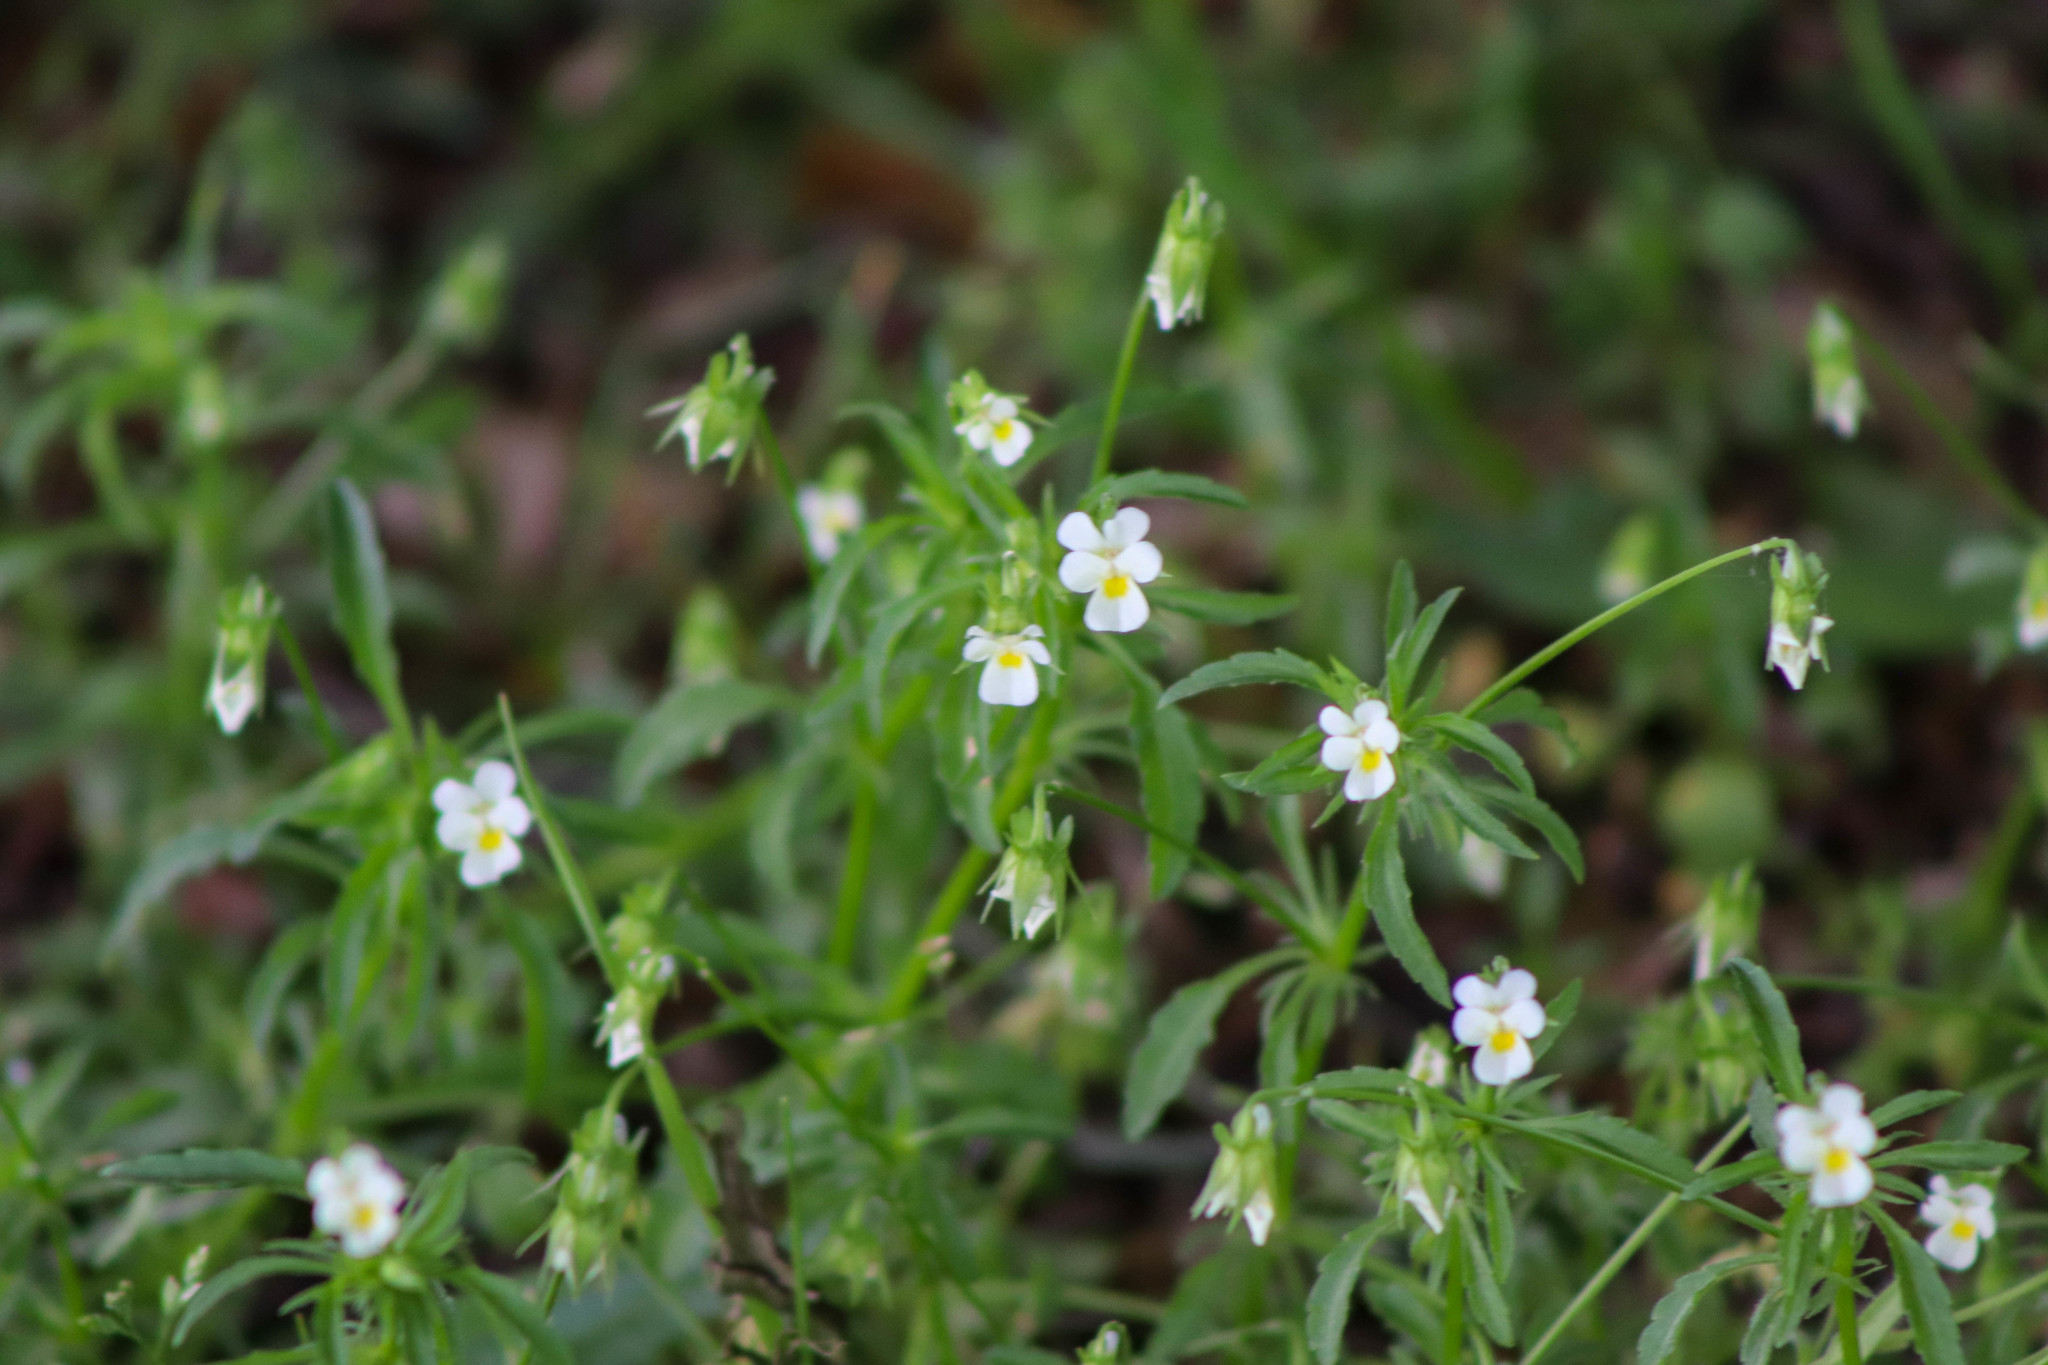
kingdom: Plantae
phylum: Tracheophyta
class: Magnoliopsida
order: Malpighiales
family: Violaceae
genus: Viola
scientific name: Viola arvensis
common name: Field pansy
